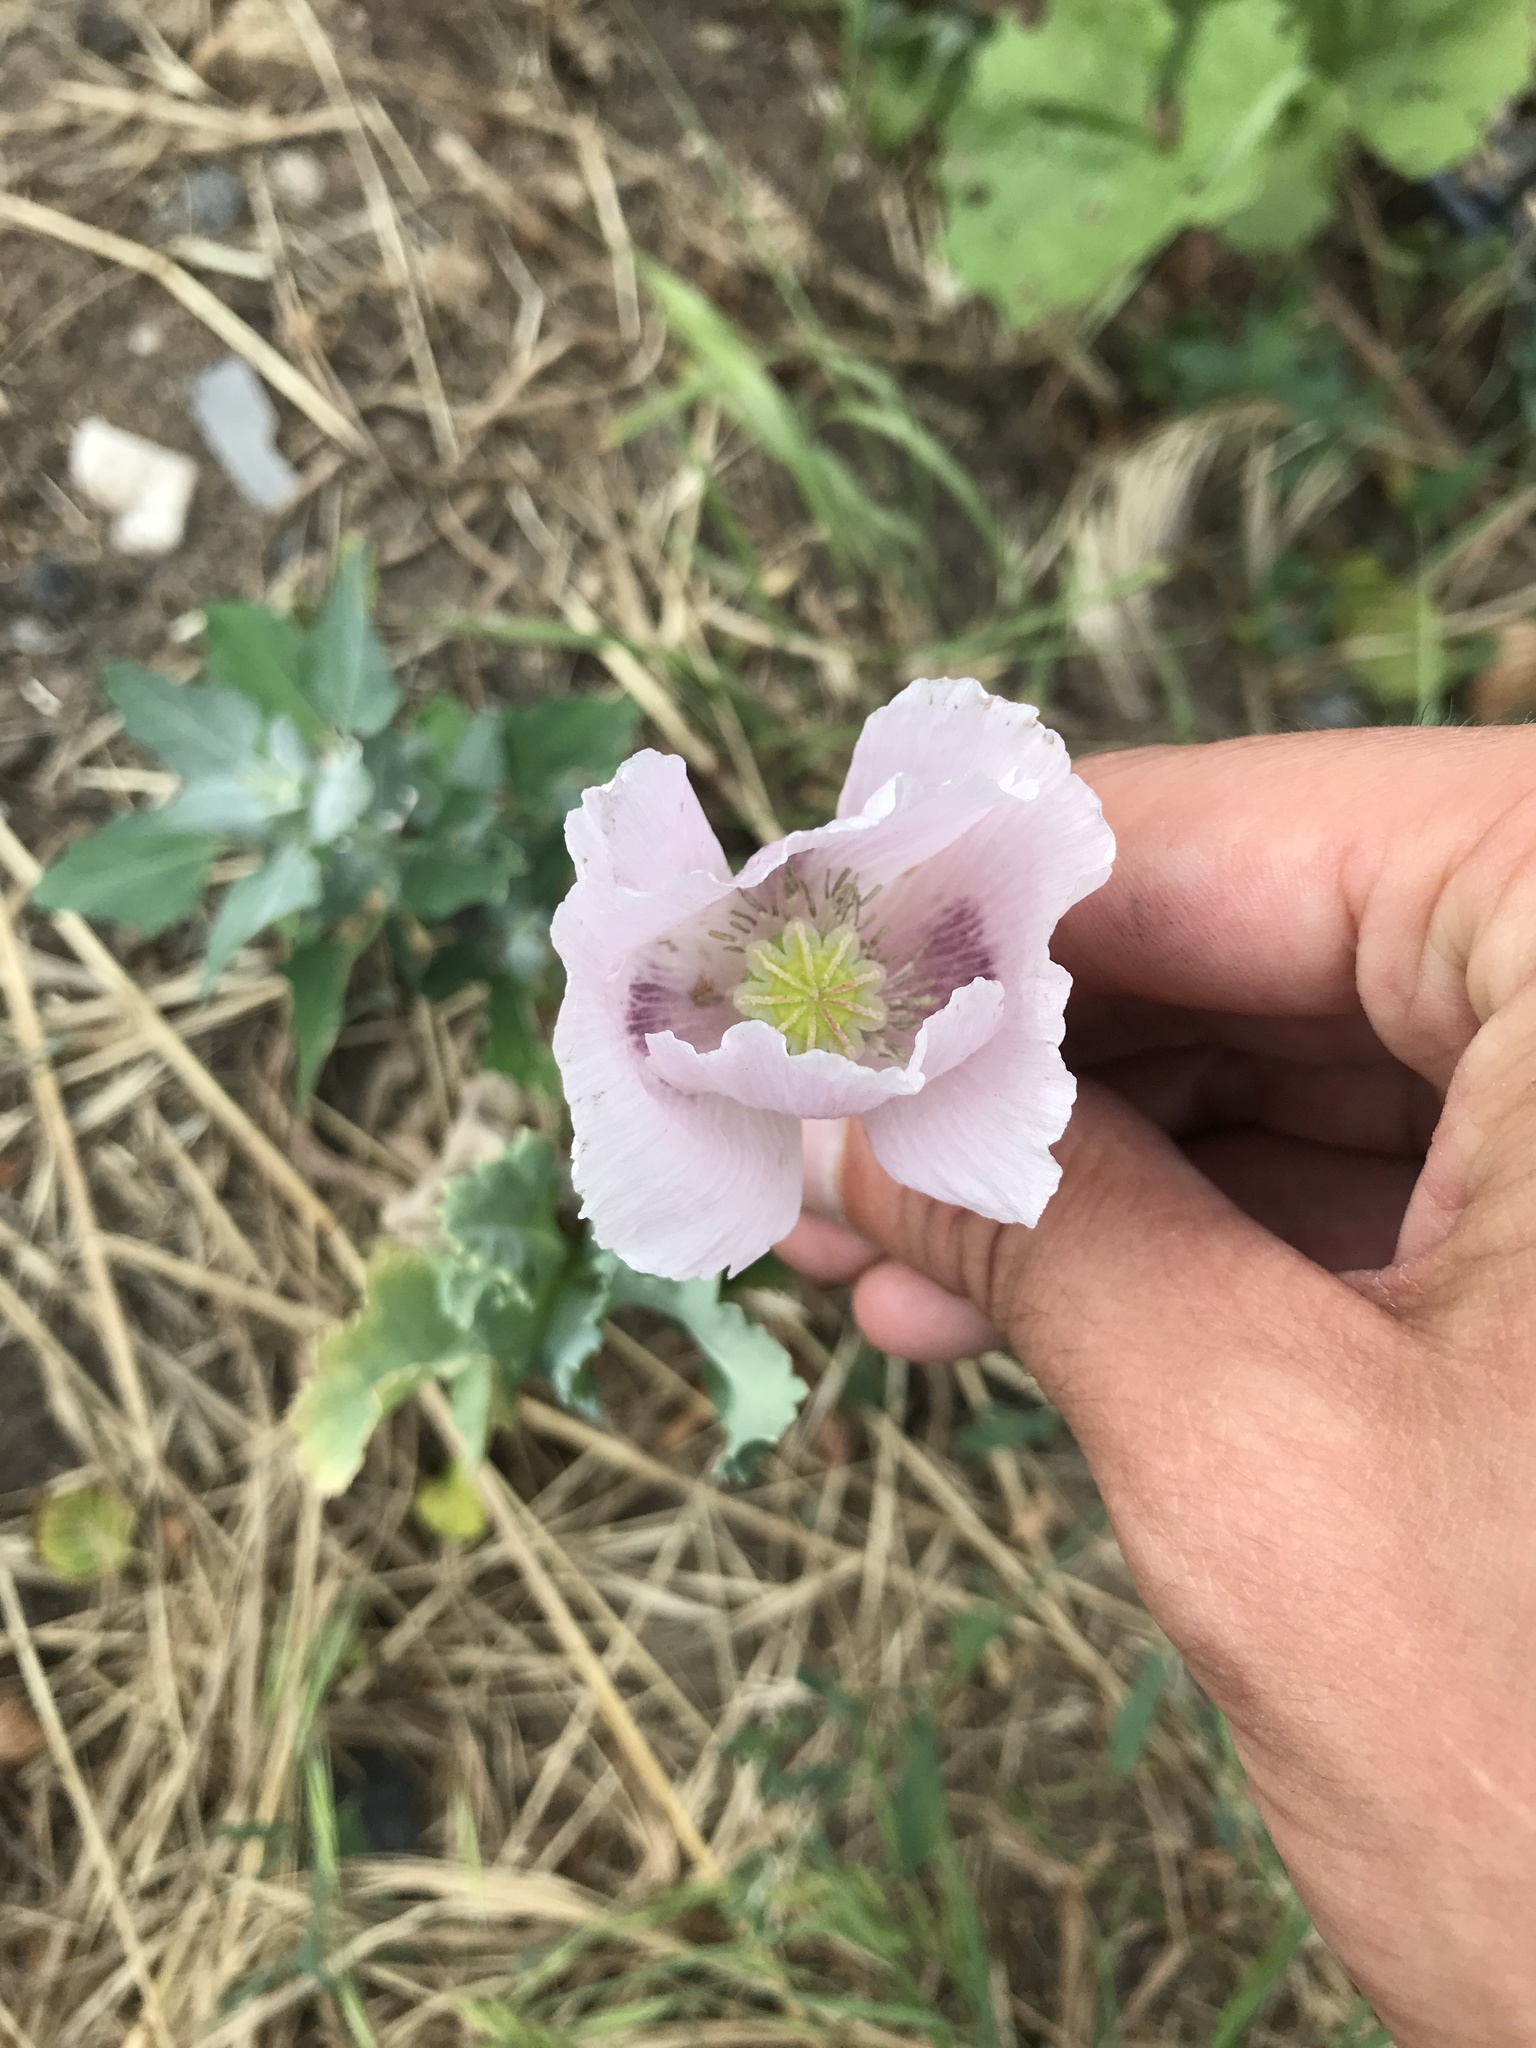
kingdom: Plantae
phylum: Tracheophyta
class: Magnoliopsida
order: Ranunculales
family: Papaveraceae
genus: Papaver
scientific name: Papaver somniferum
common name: Opium poppy
